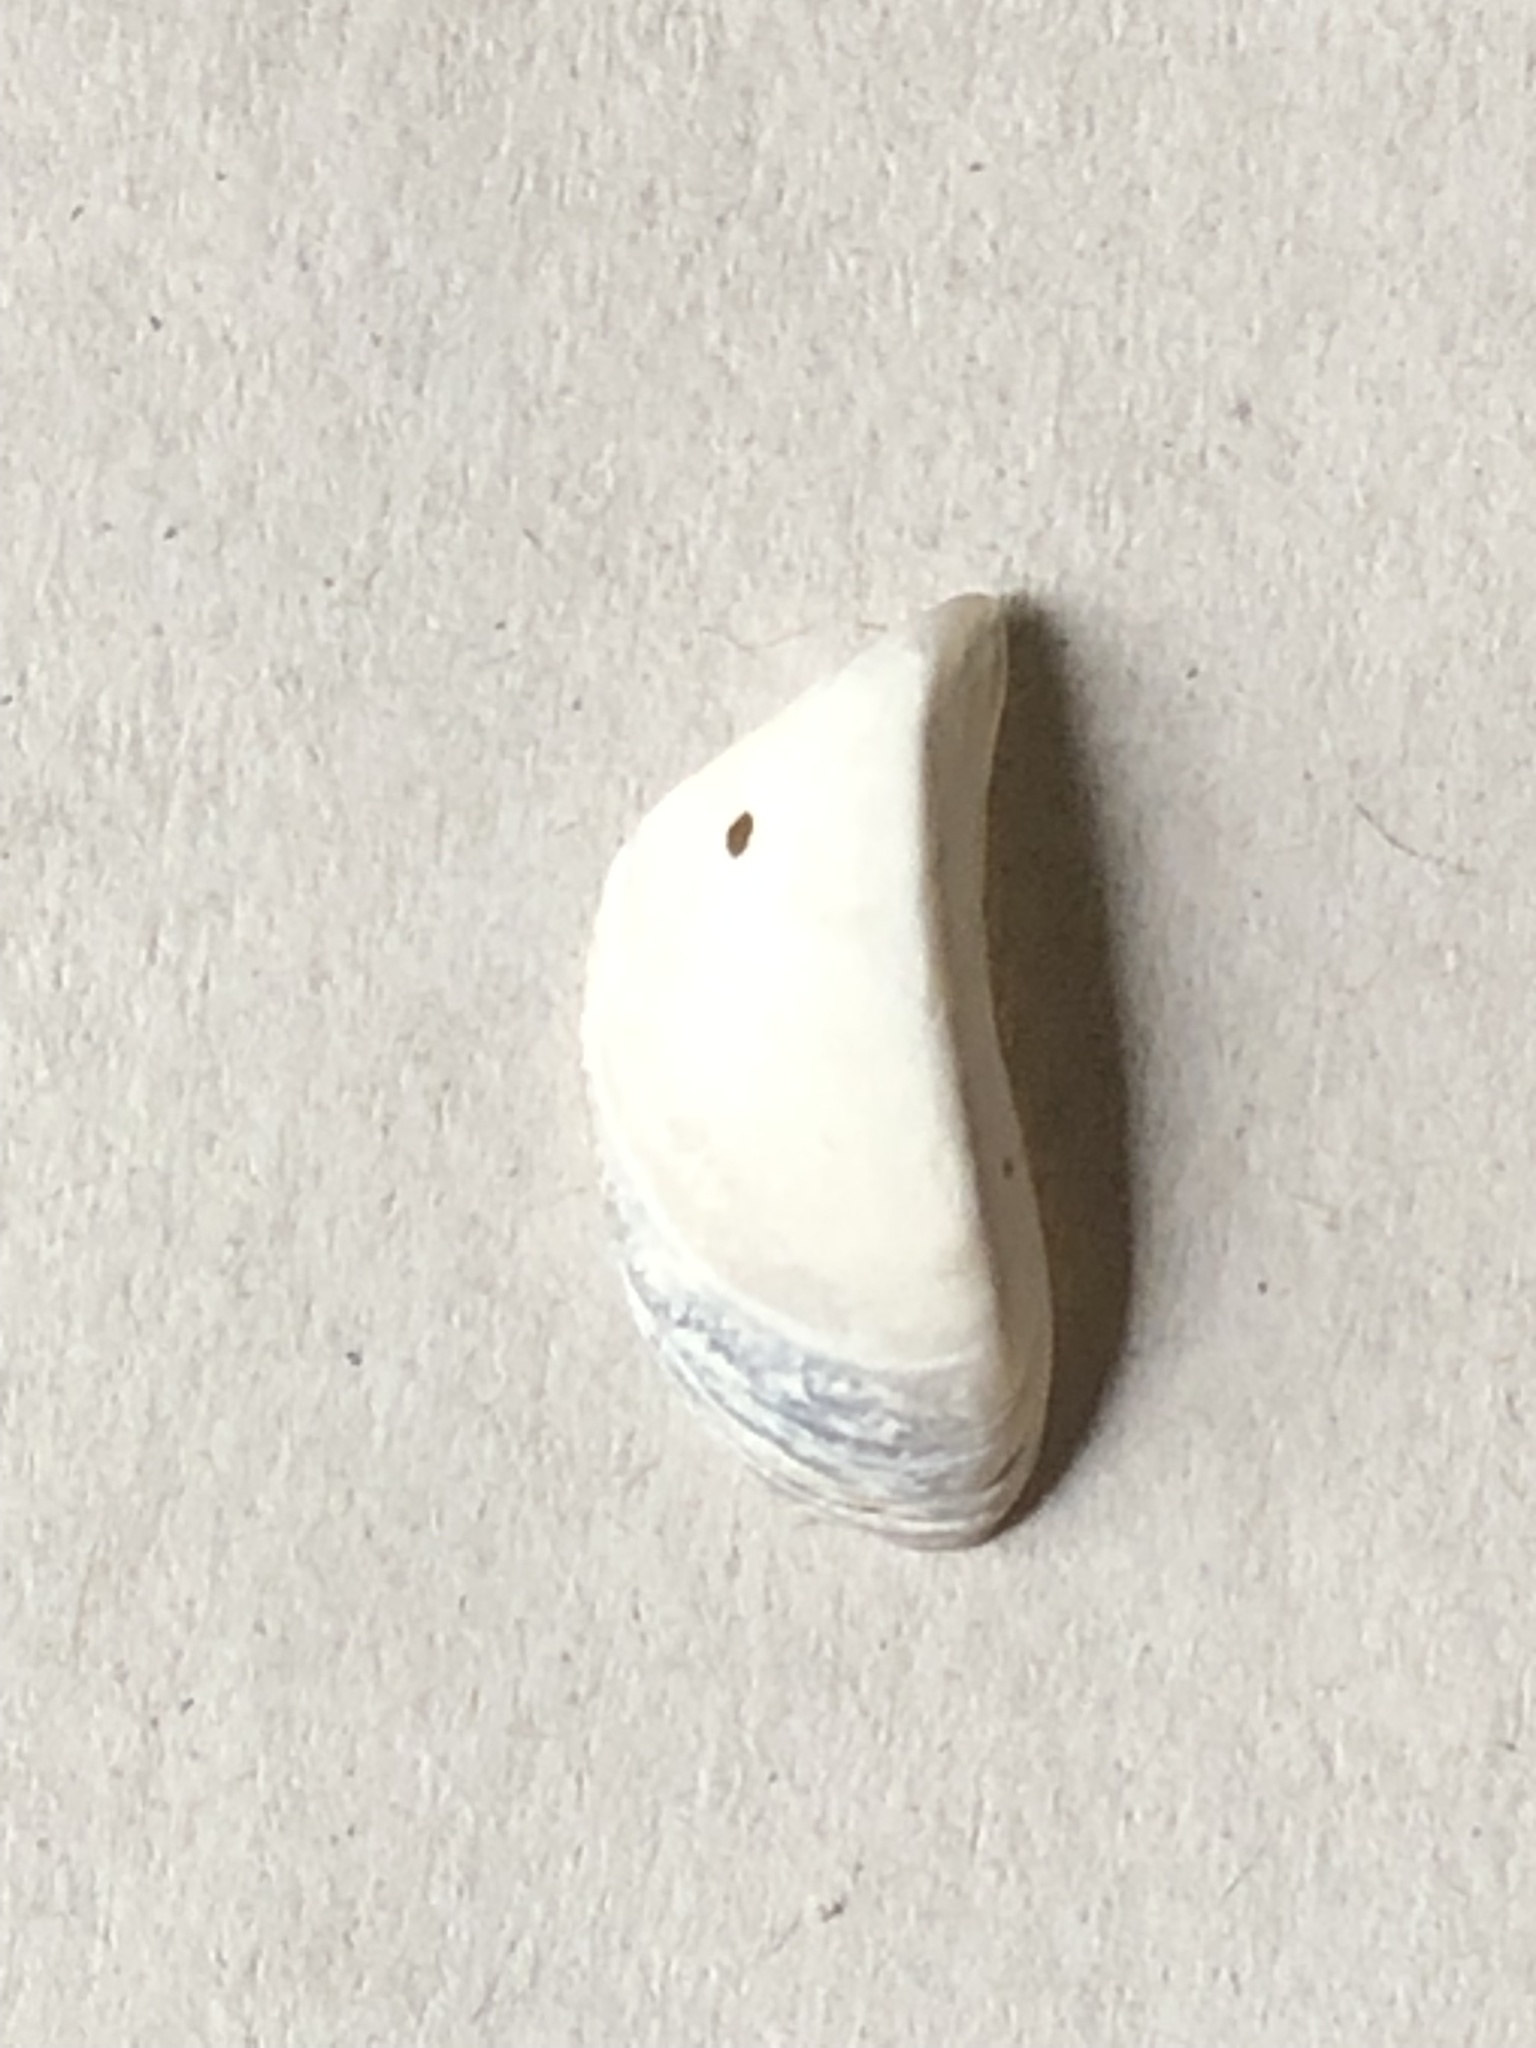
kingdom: Animalia
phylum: Mollusca
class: Bivalvia
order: Myida
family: Dreissenidae
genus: Dreissena
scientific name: Dreissena polymorpha
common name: Zebra mussel
